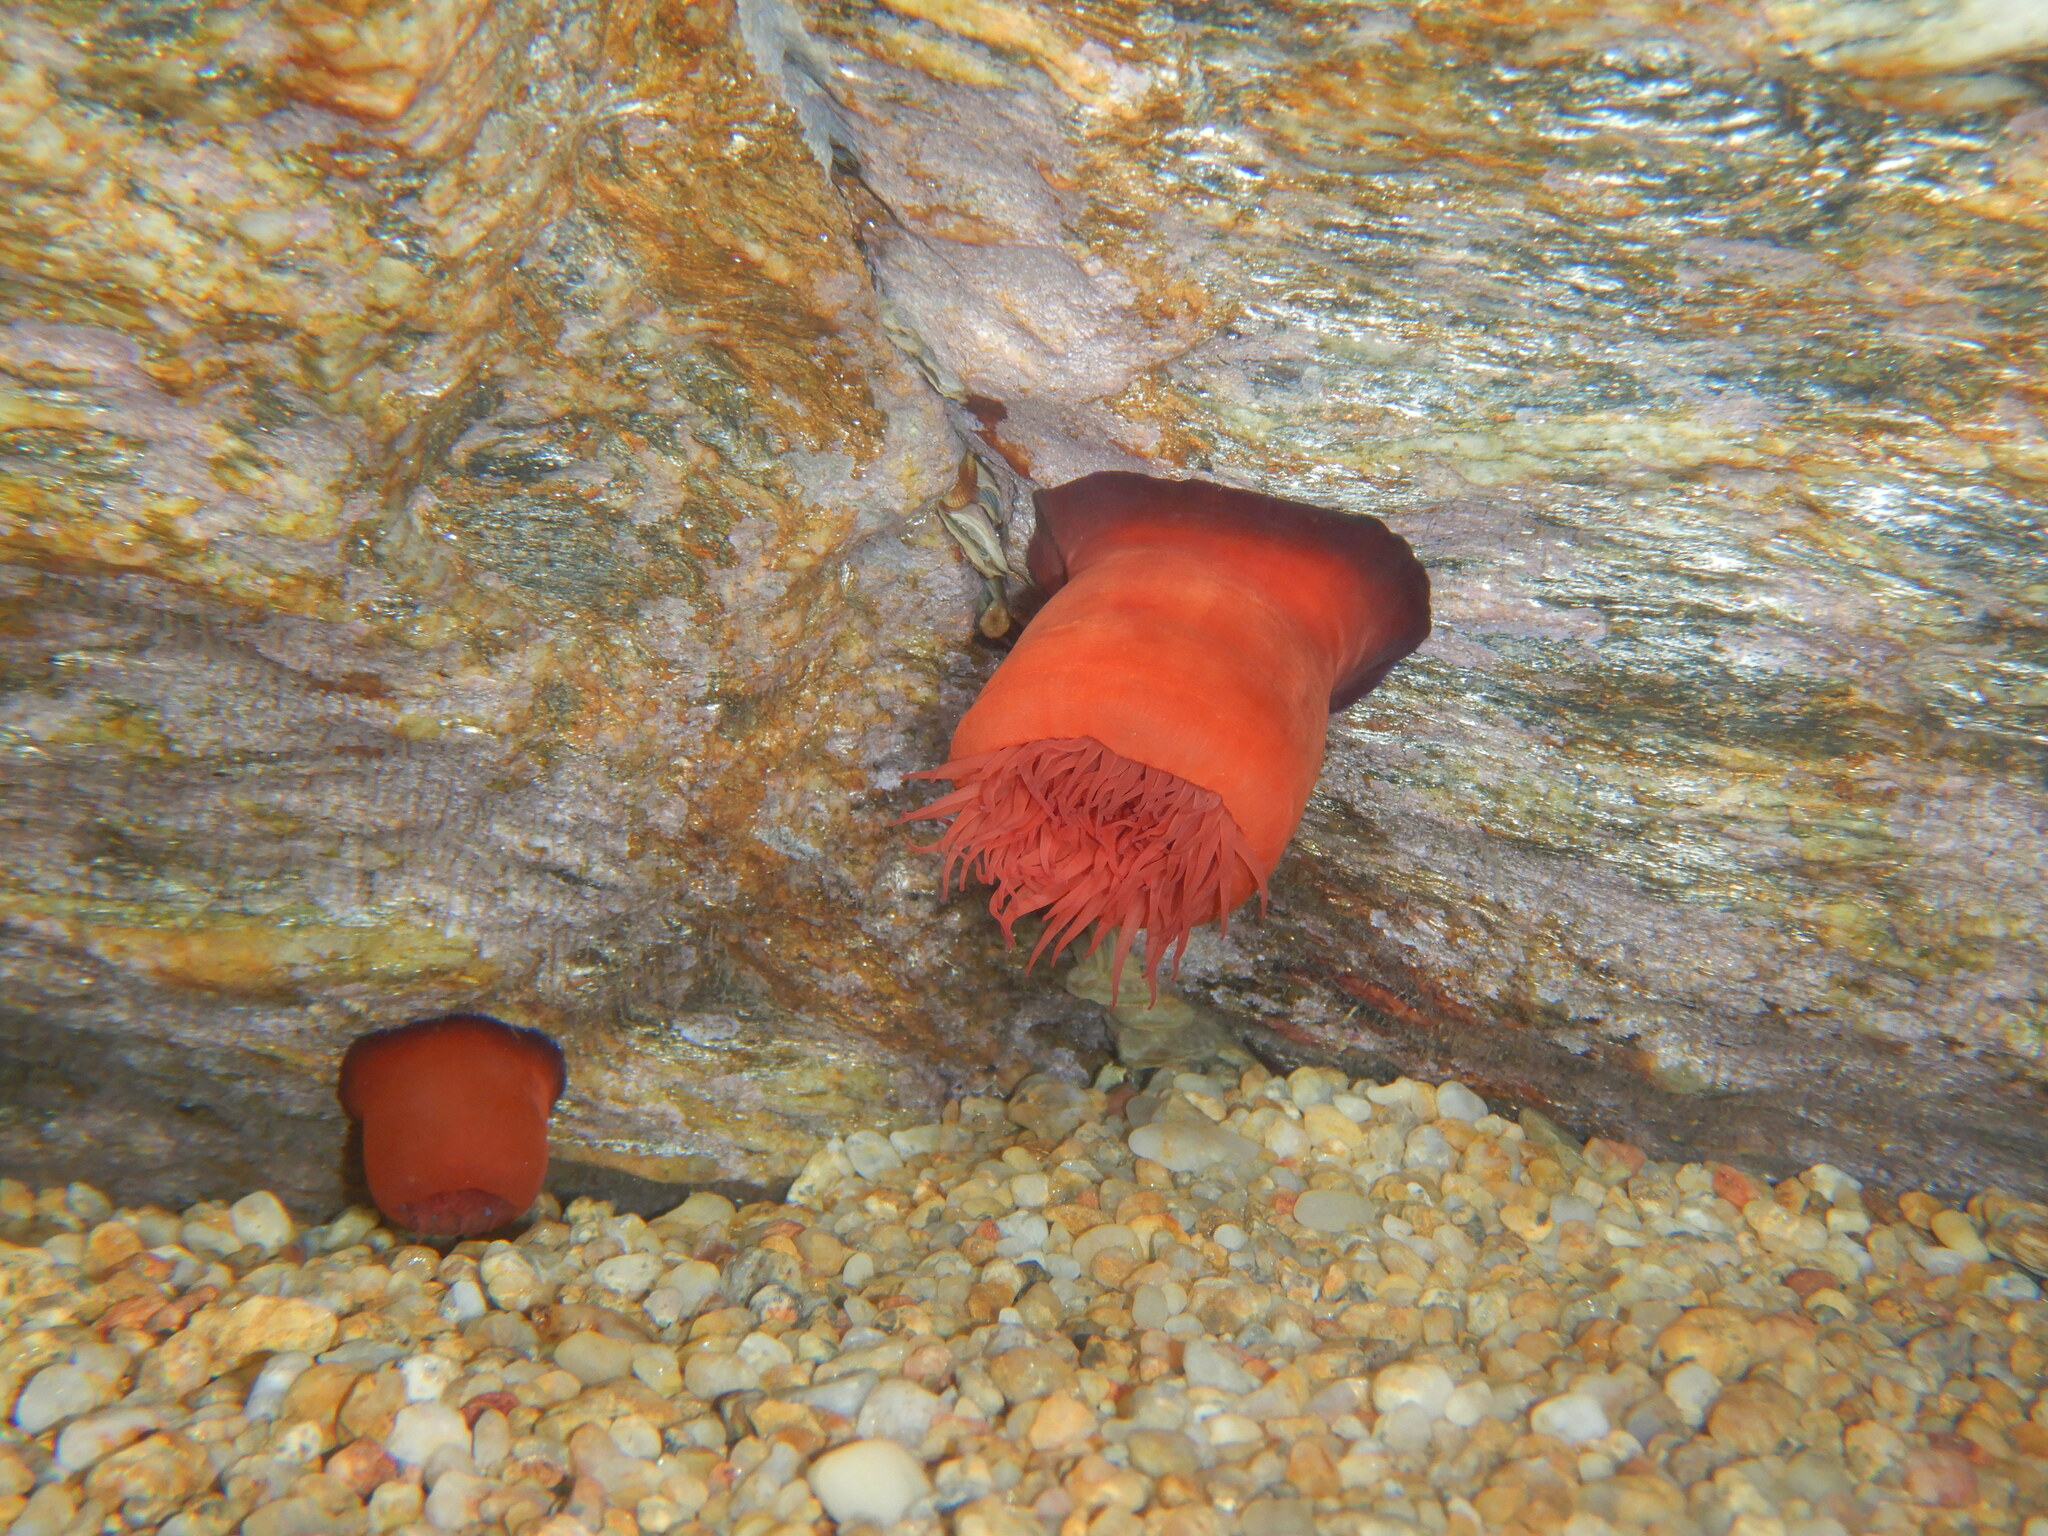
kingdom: Animalia
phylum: Cnidaria
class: Anthozoa
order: Actiniaria
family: Actiniidae
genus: Actinia
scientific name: Actinia mediterranea
